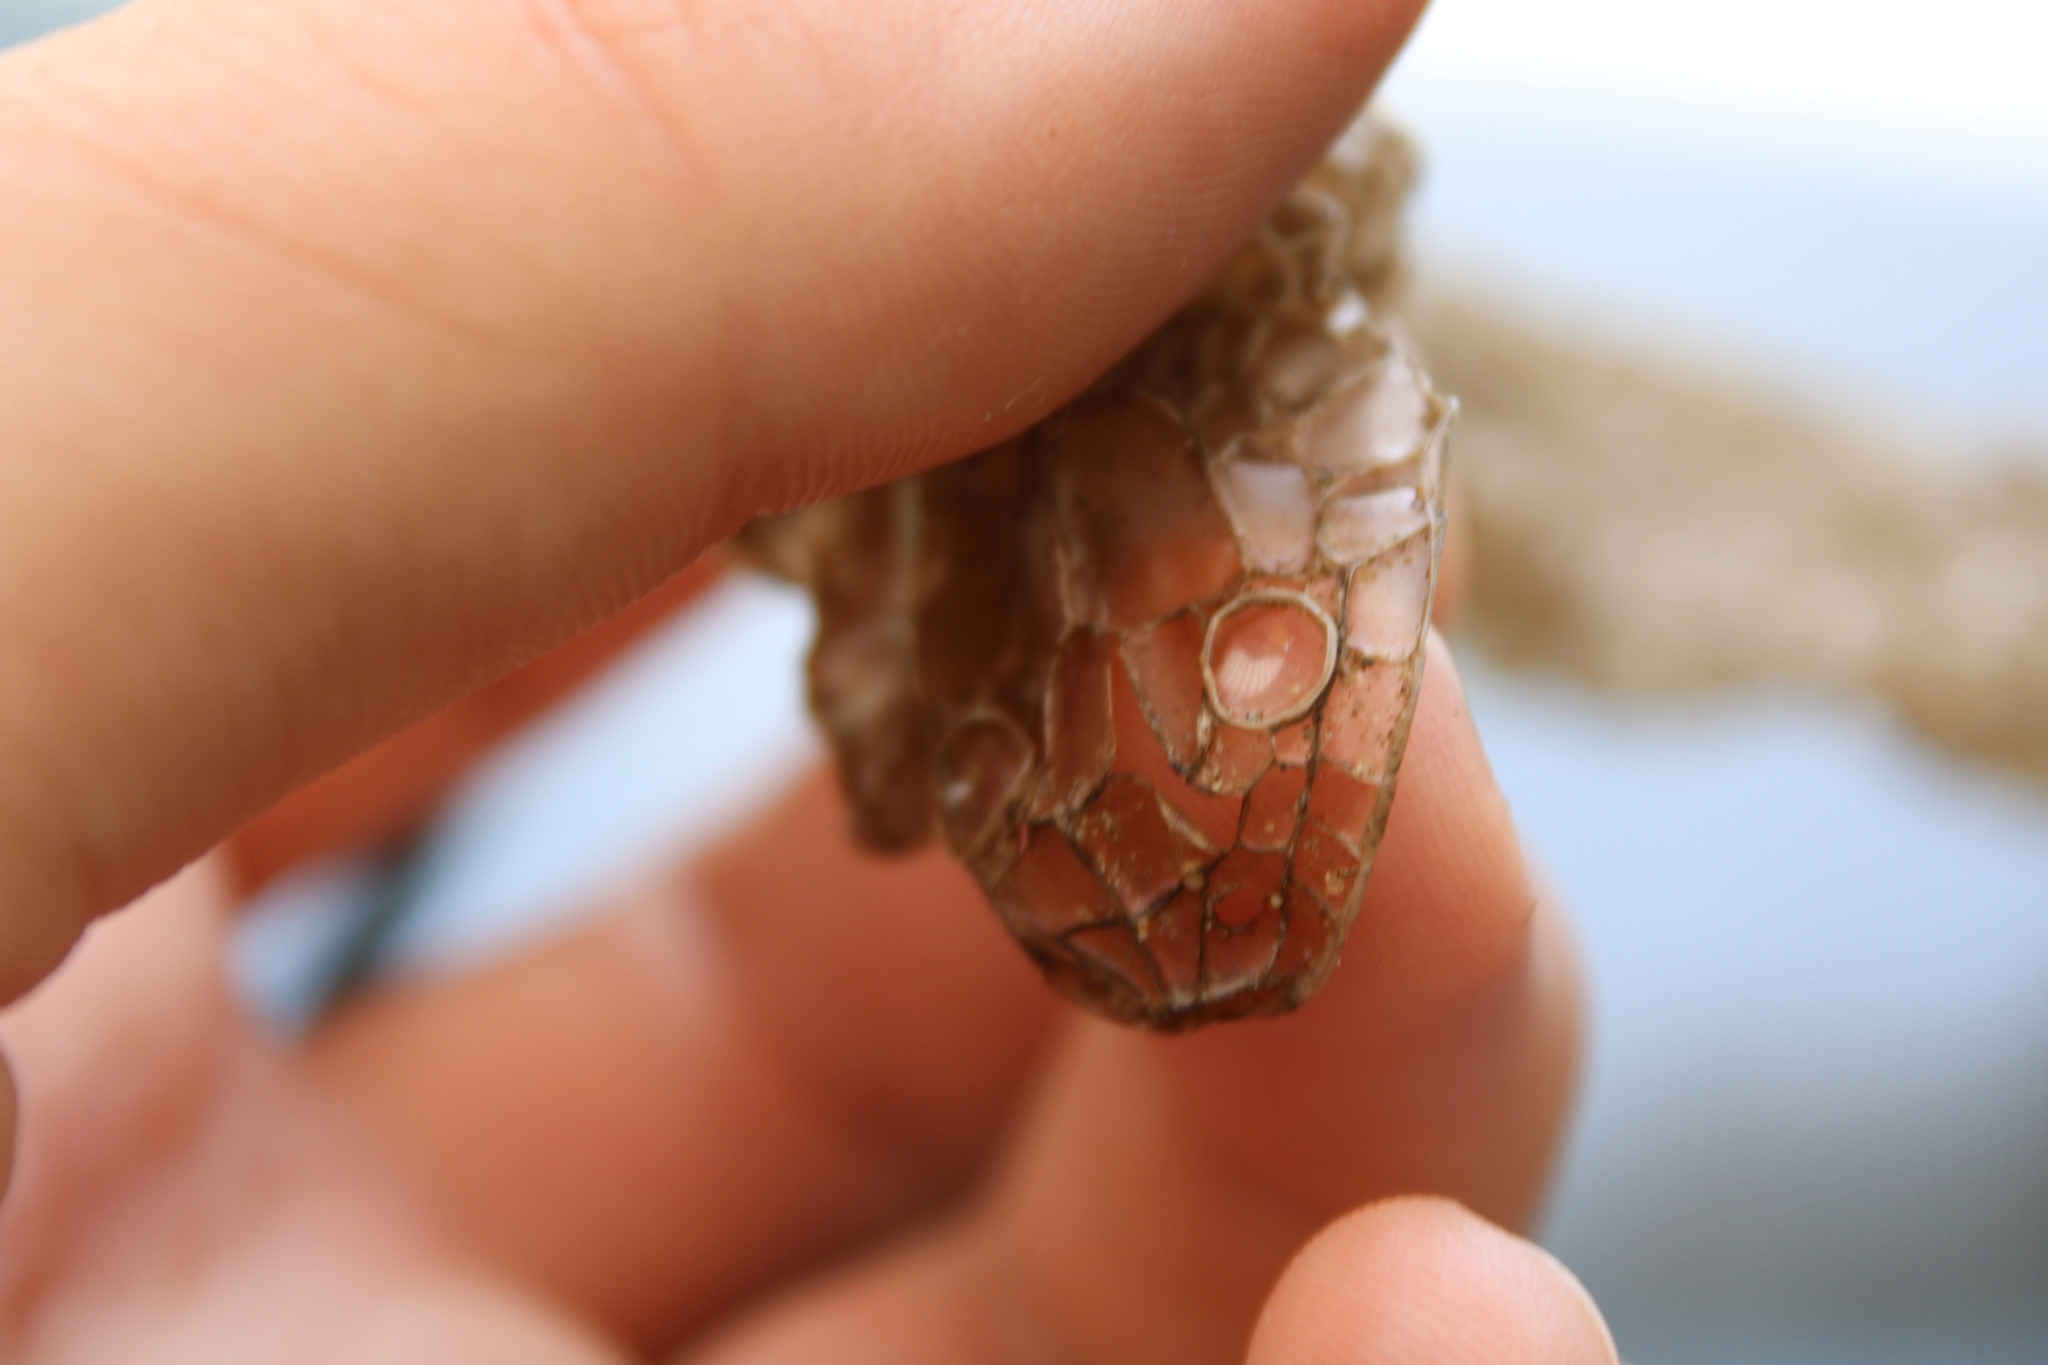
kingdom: Animalia
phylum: Chordata
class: Squamata
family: Colubridae
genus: Natrix
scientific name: Natrix tessellata
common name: Dice snake
